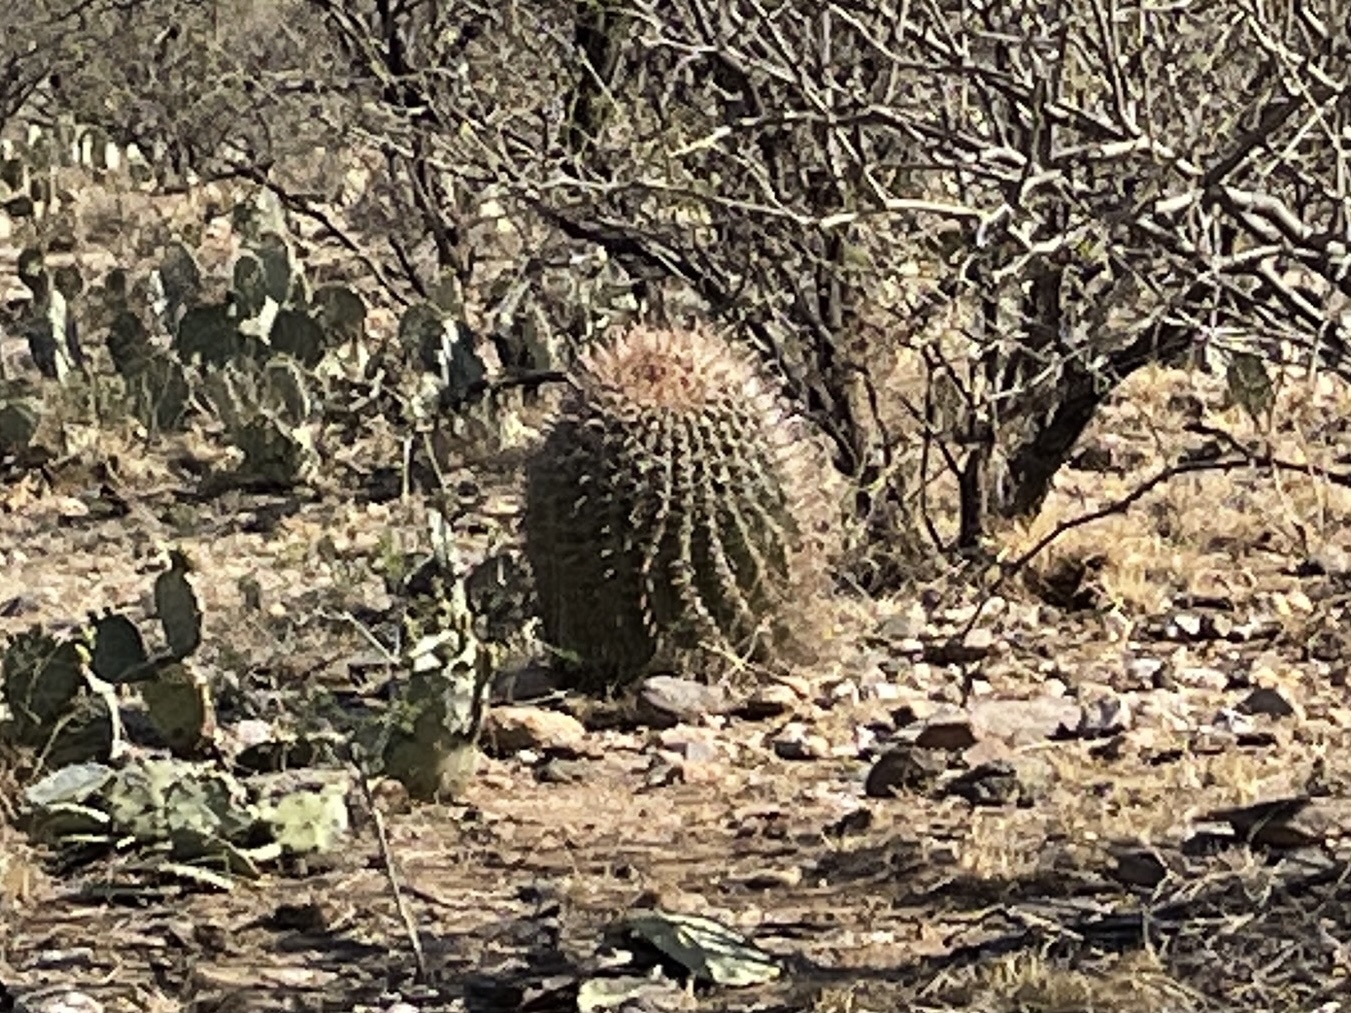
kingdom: Plantae
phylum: Tracheophyta
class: Magnoliopsida
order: Caryophyllales
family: Cactaceae
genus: Ferocactus
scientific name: Ferocactus wislizeni
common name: Candy barrel cactus
